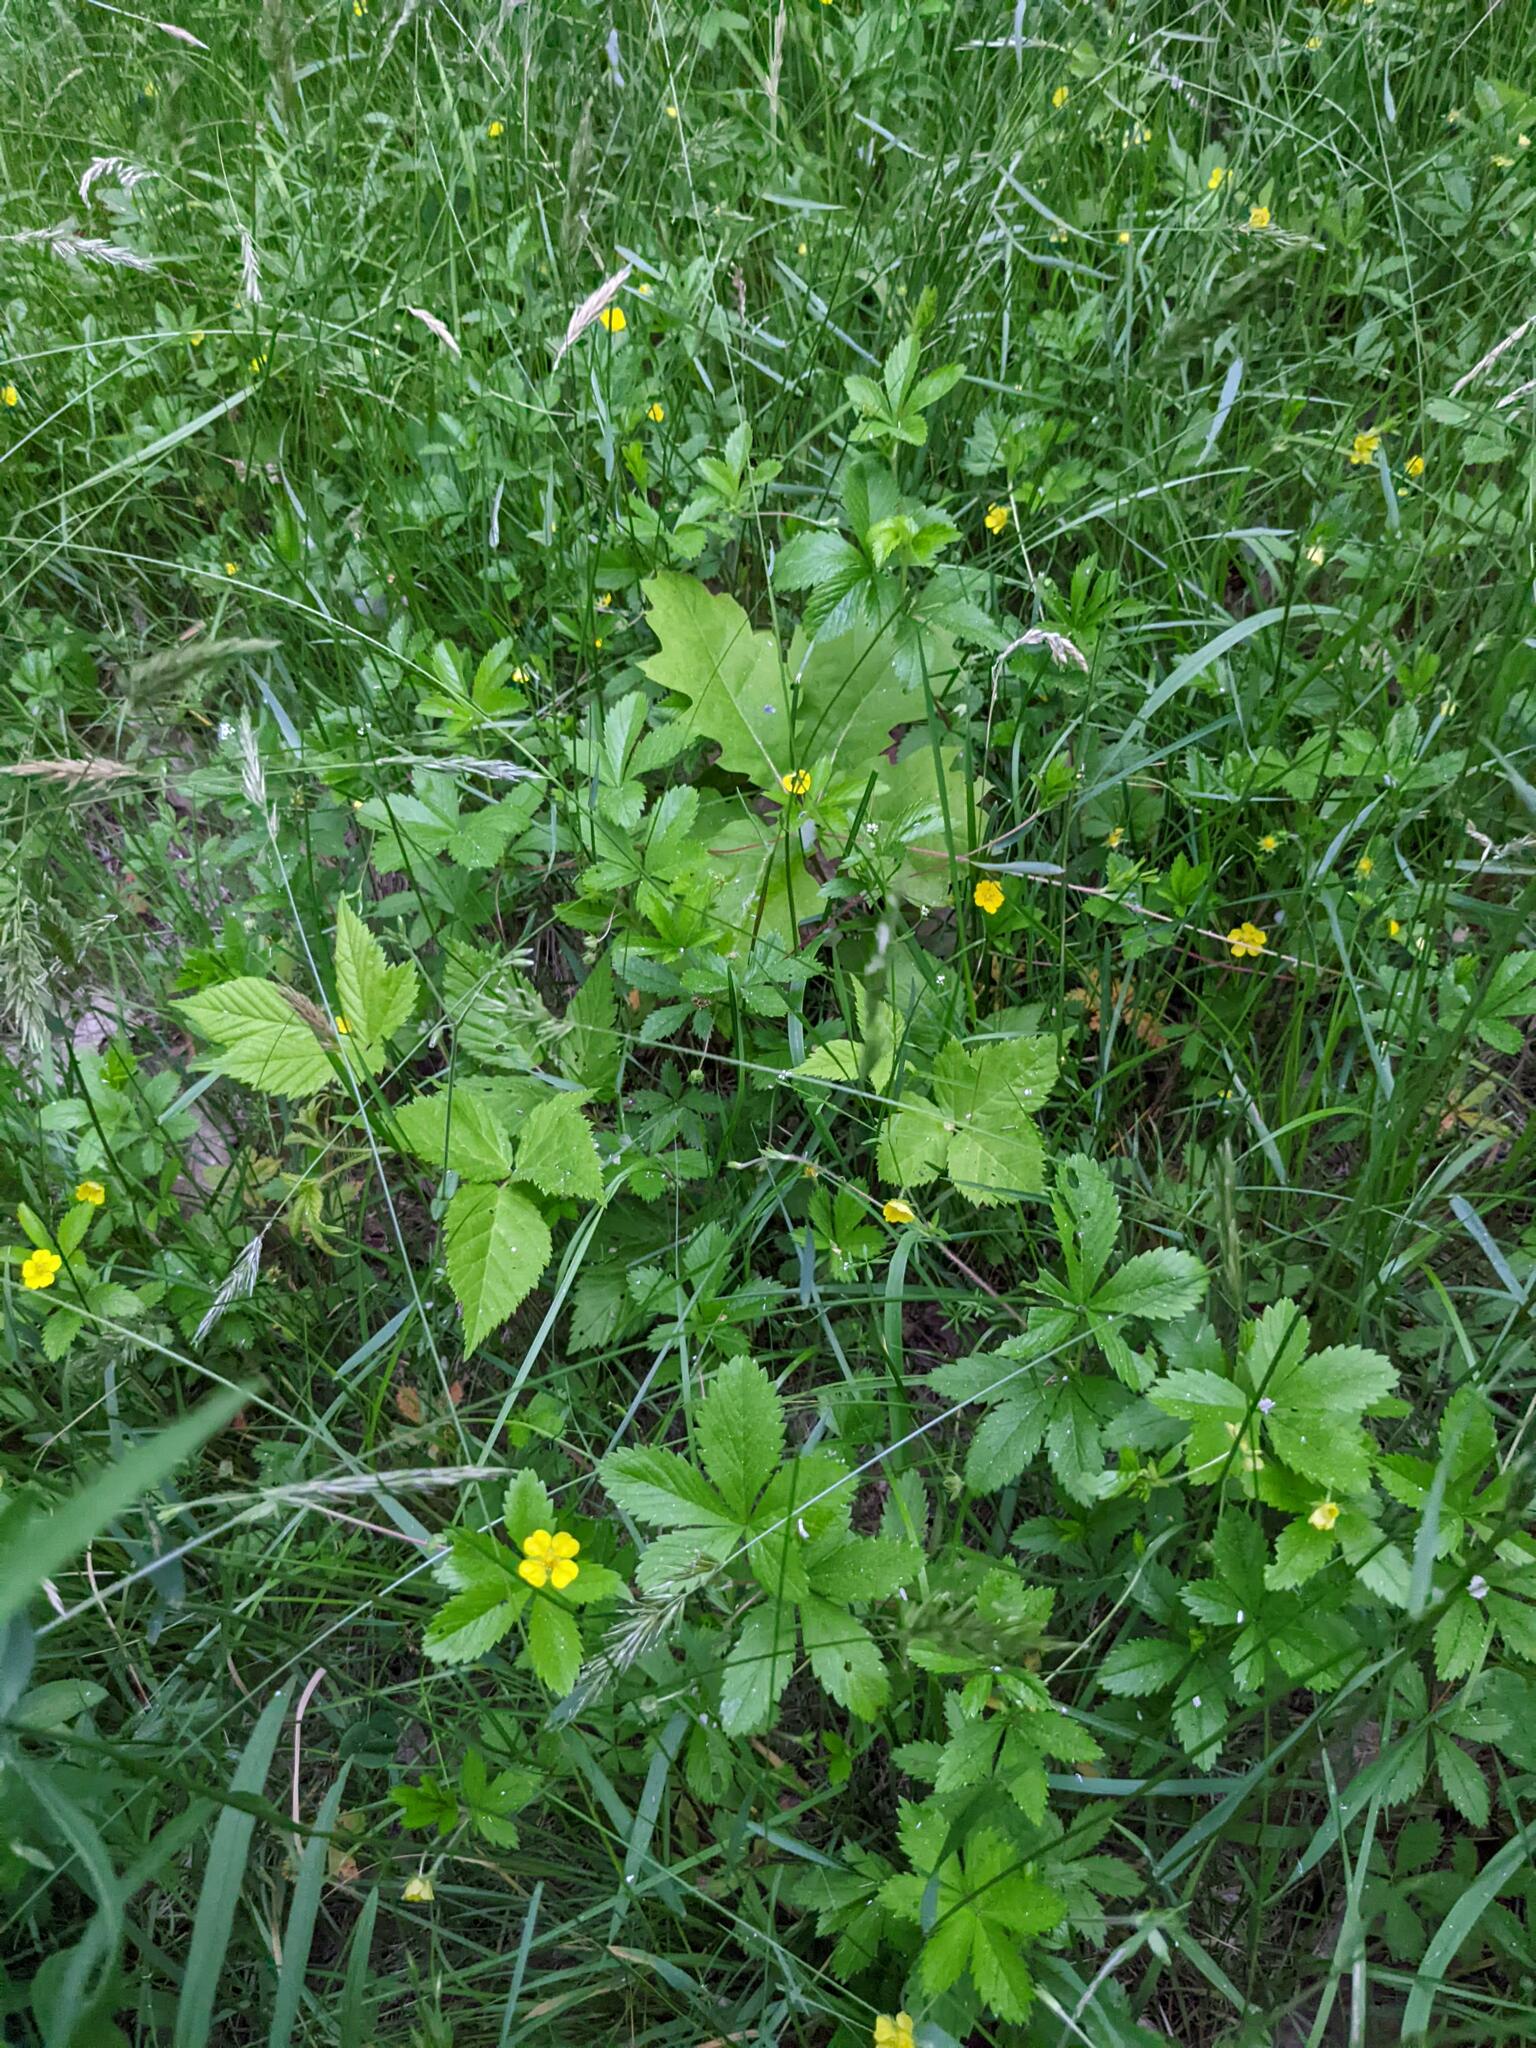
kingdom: Plantae
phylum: Tracheophyta
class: Magnoliopsida
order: Rosales
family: Rosaceae
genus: Potentilla
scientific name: Potentilla simplex
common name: Old field cinquefoil
